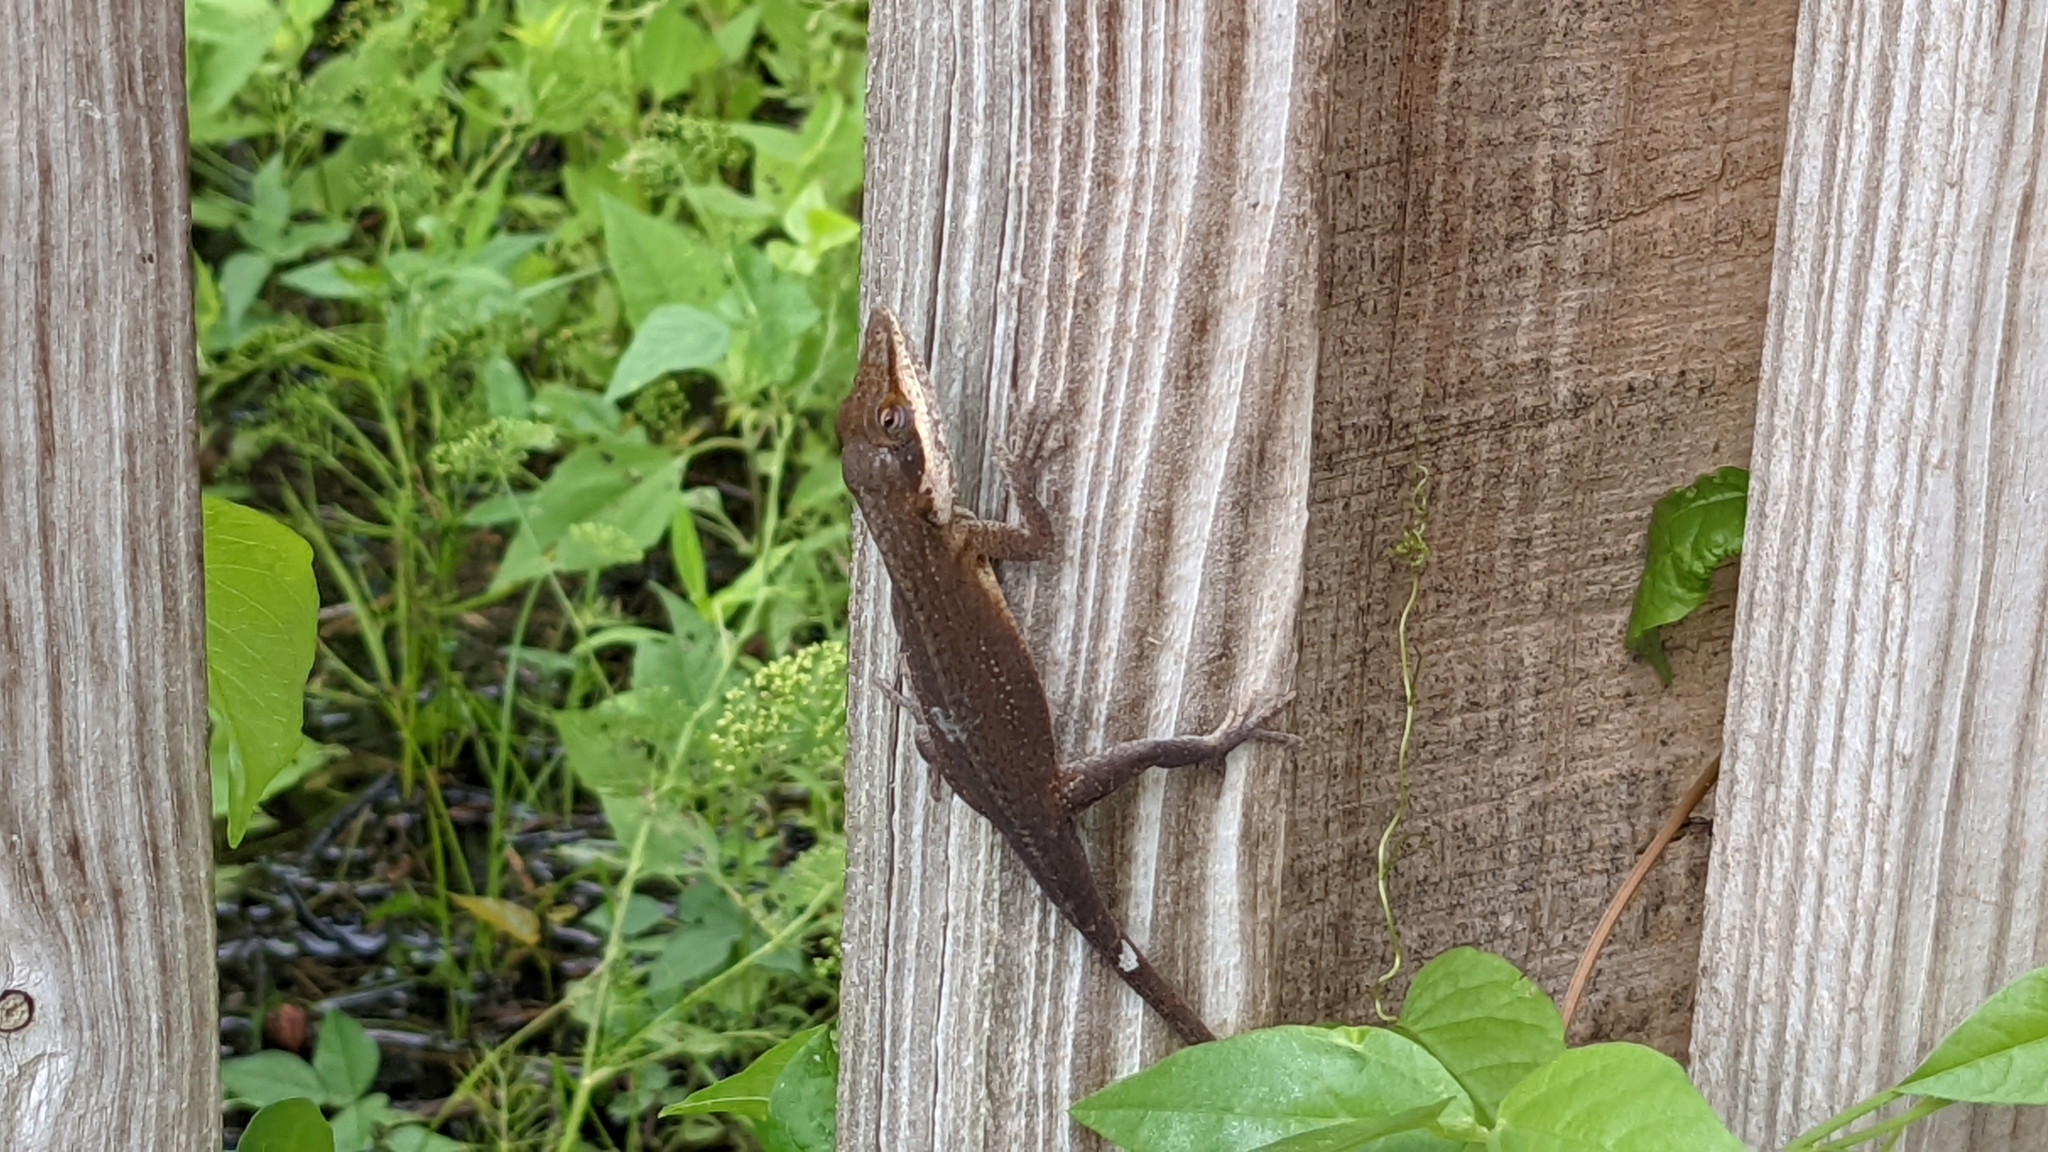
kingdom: Animalia
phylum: Chordata
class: Squamata
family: Dactyloidae
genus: Anolis
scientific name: Anolis carolinensis
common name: Green anole
